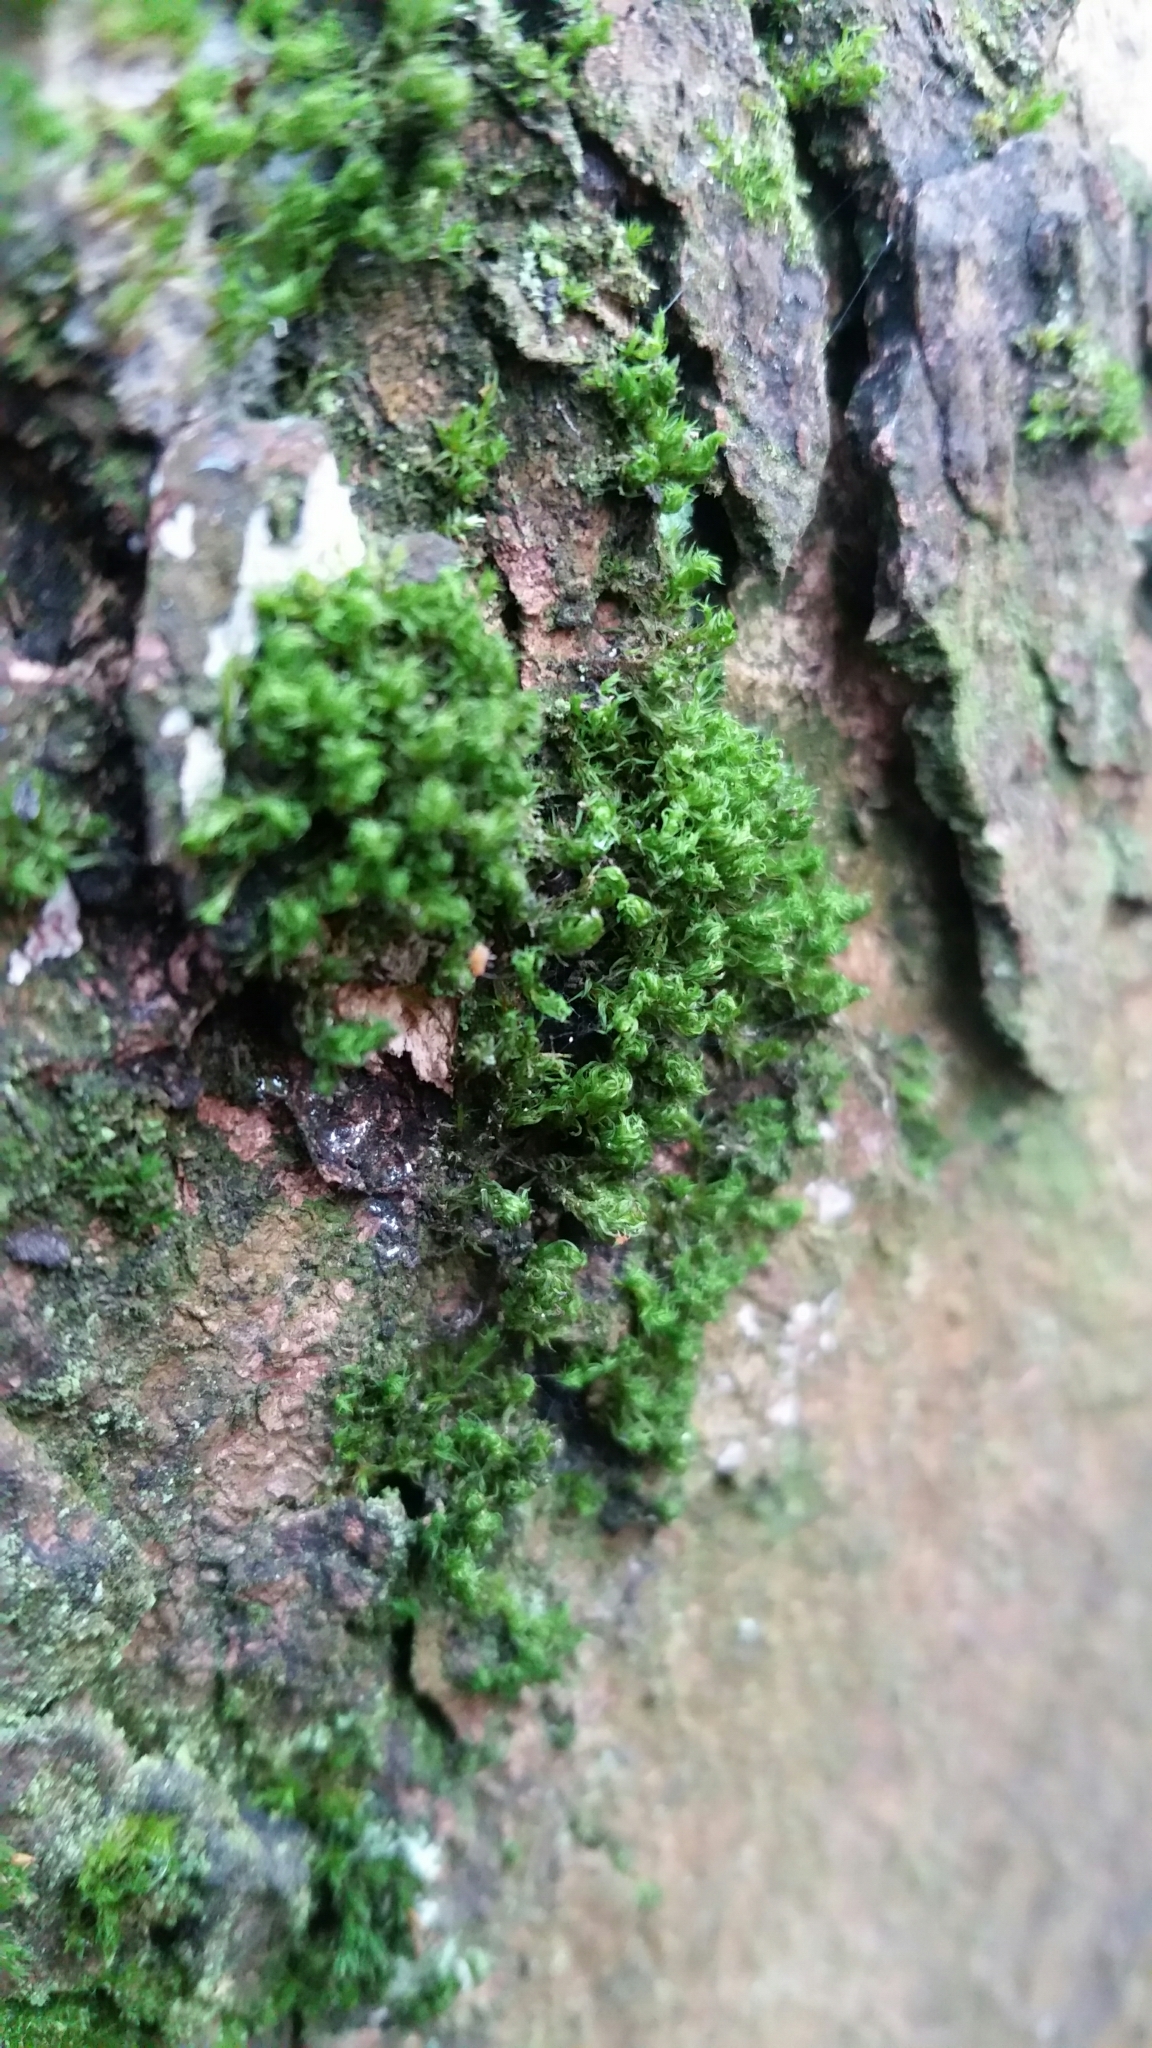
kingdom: Plantae
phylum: Bryophyta
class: Bryopsida
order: Orthotrichales
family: Orthotrichaceae
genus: Lewinskya
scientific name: Lewinskya affinis
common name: Wood bristle-moss
